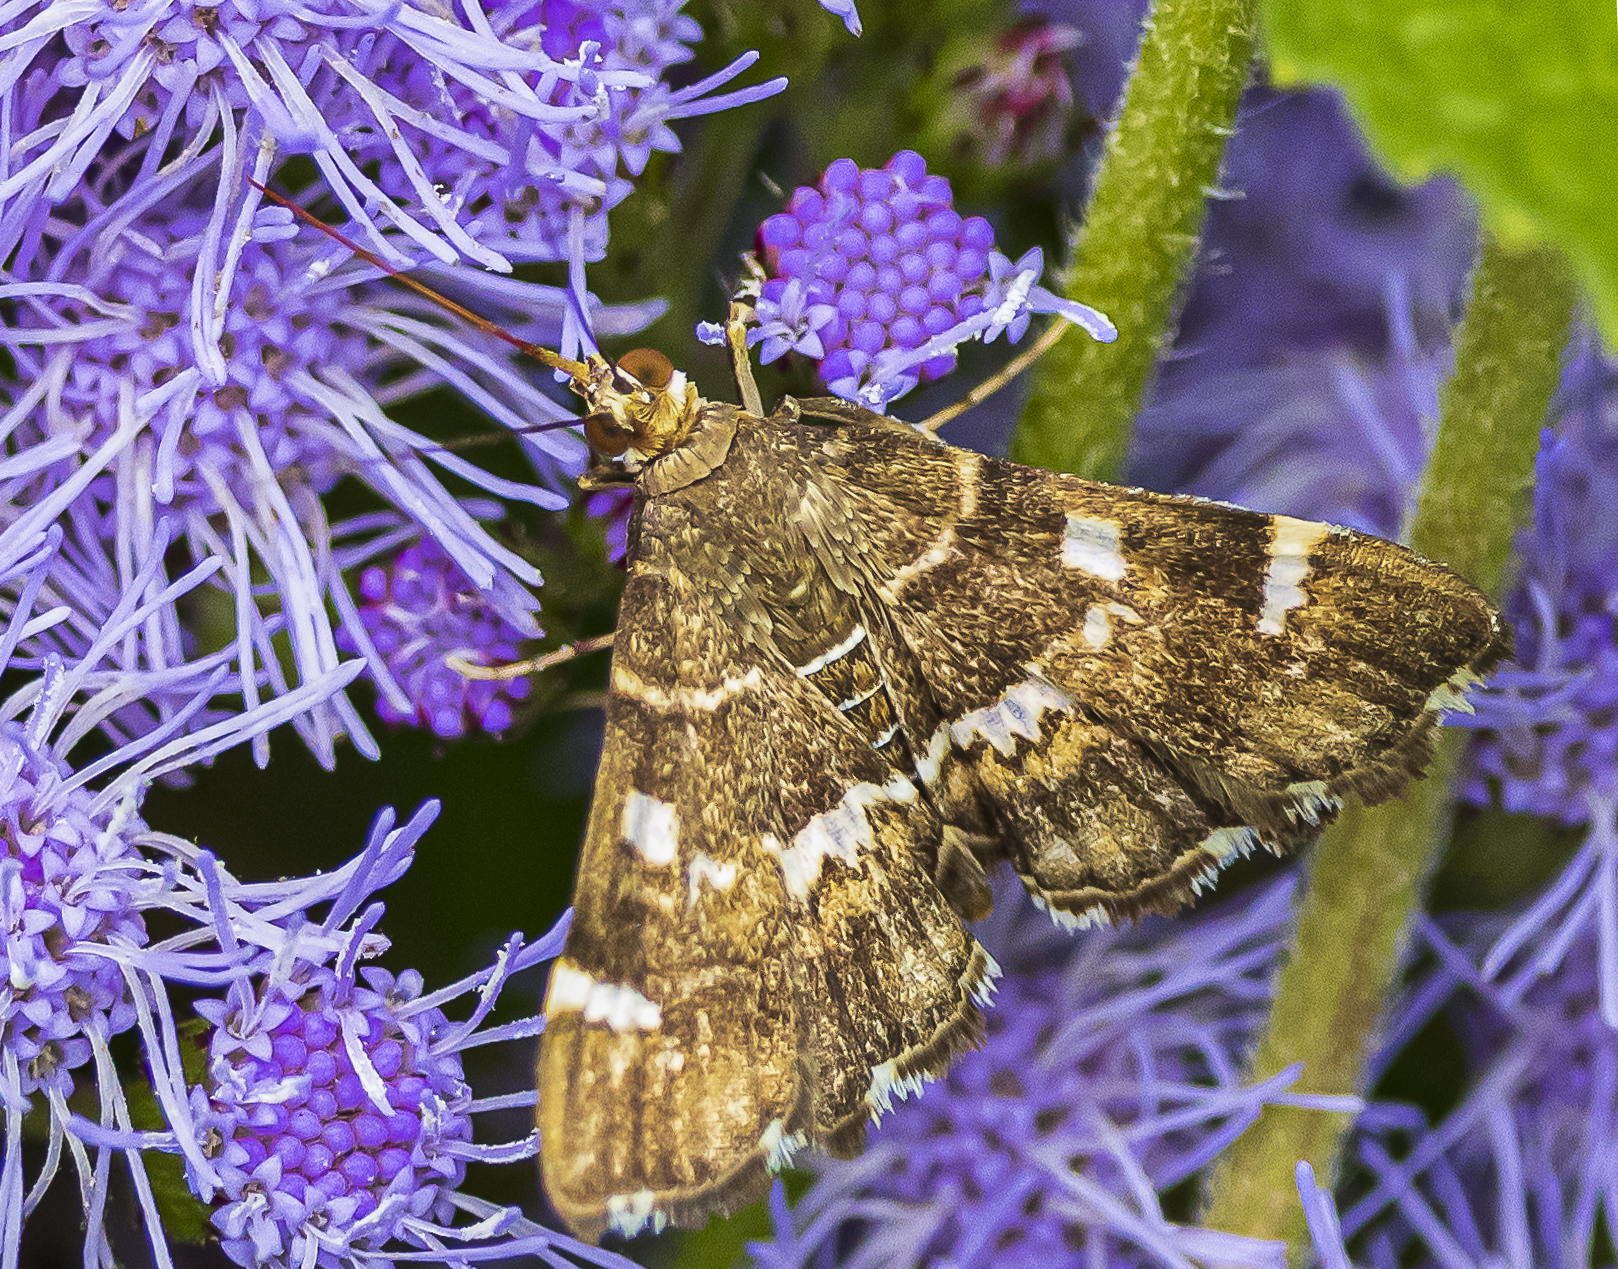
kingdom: Animalia
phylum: Arthropoda
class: Insecta
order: Lepidoptera
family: Crambidae
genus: Hymenia
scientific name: Hymenia perspectalis
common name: Spotted beet webworm
